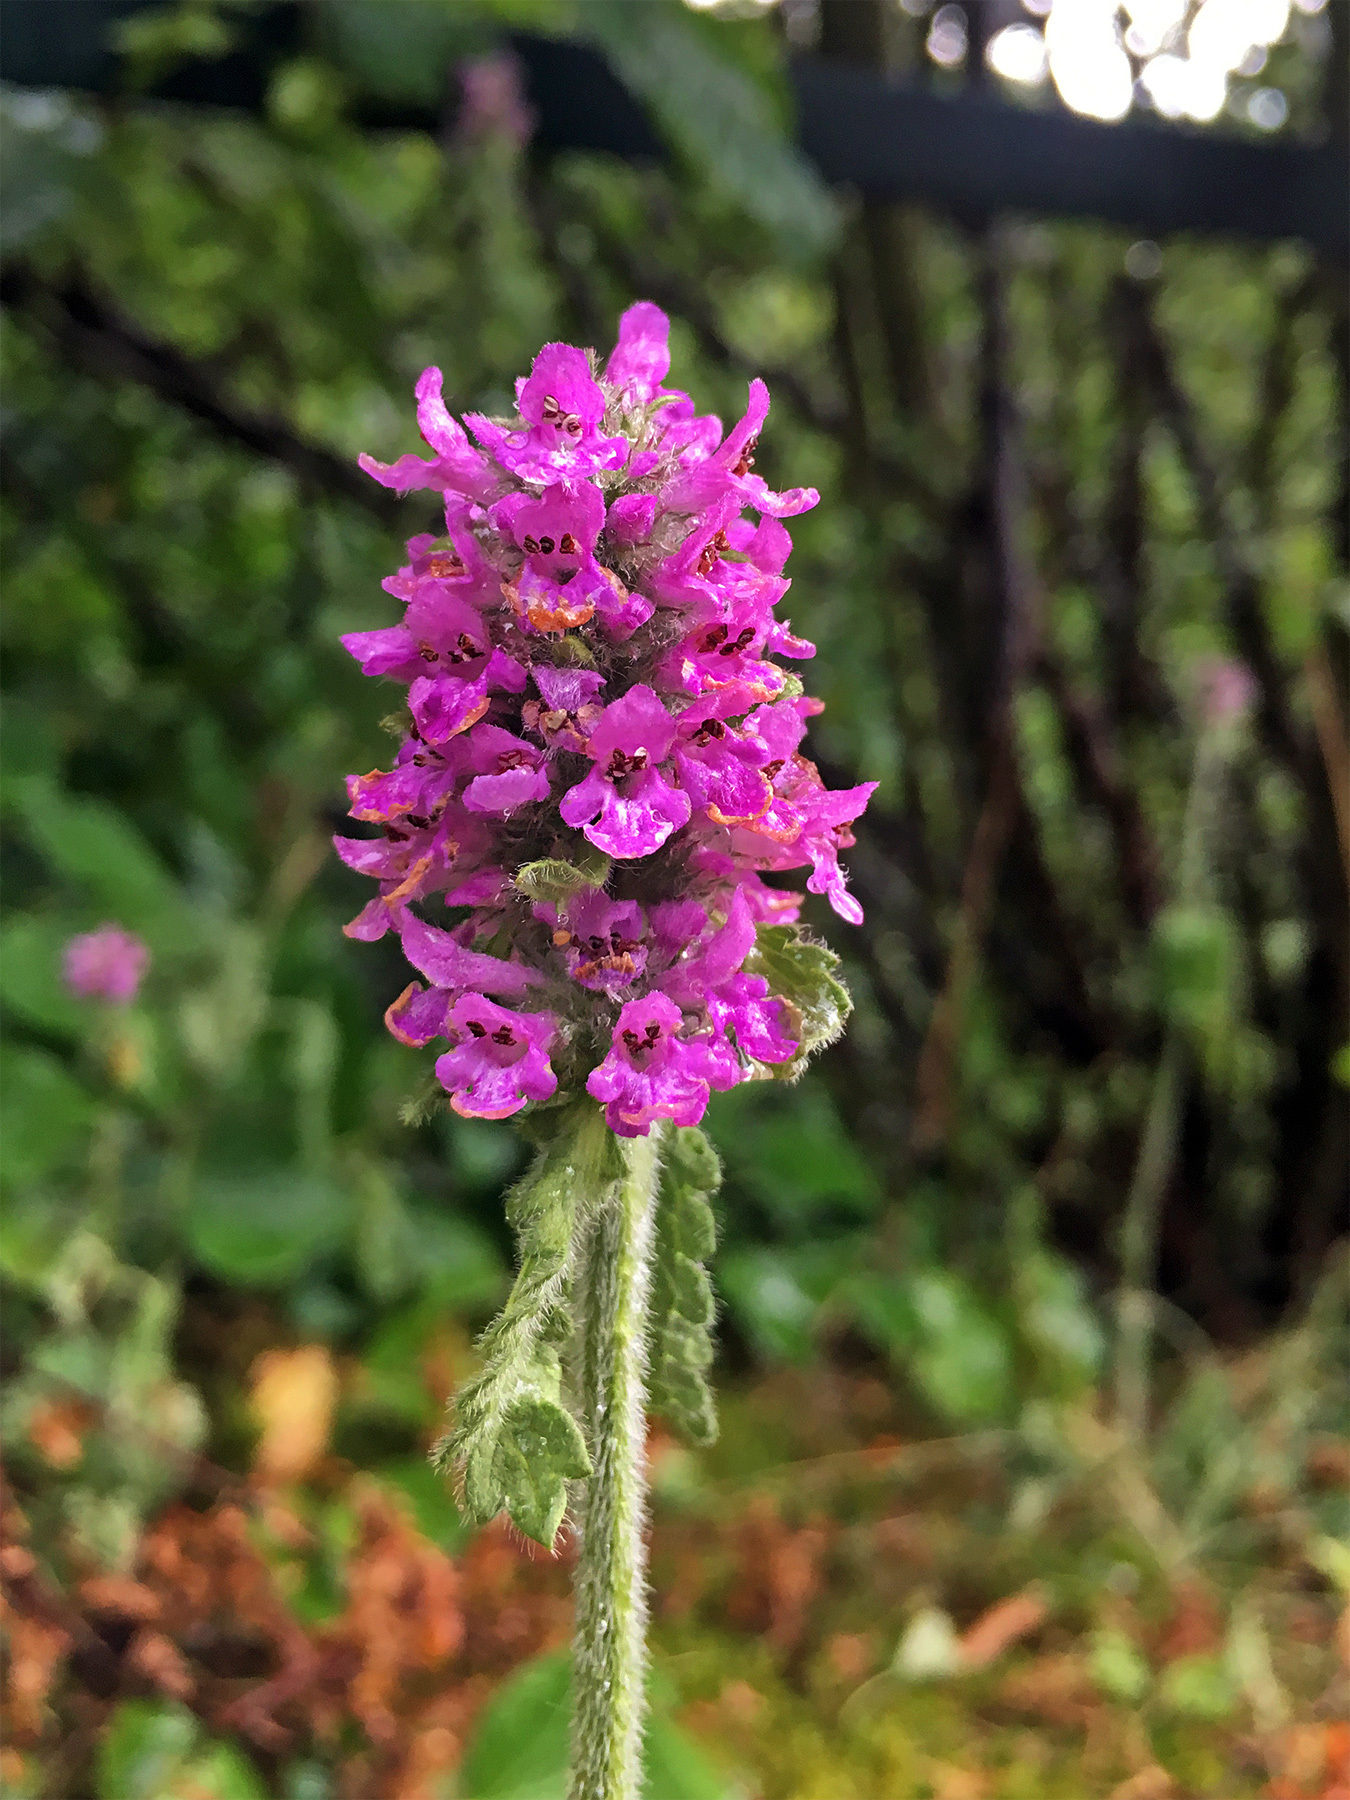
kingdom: Plantae
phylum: Tracheophyta
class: Magnoliopsida
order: Lamiales
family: Lamiaceae
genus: Betonica
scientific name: Betonica officinalis
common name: Bishop's-wort
